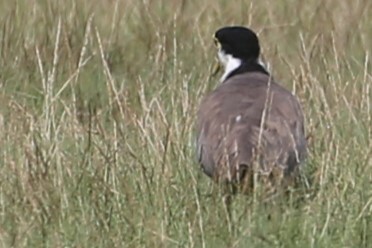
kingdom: Animalia
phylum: Chordata
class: Aves
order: Charadriiformes
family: Charadriidae
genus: Vanellus
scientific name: Vanellus miles
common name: Masked lapwing
